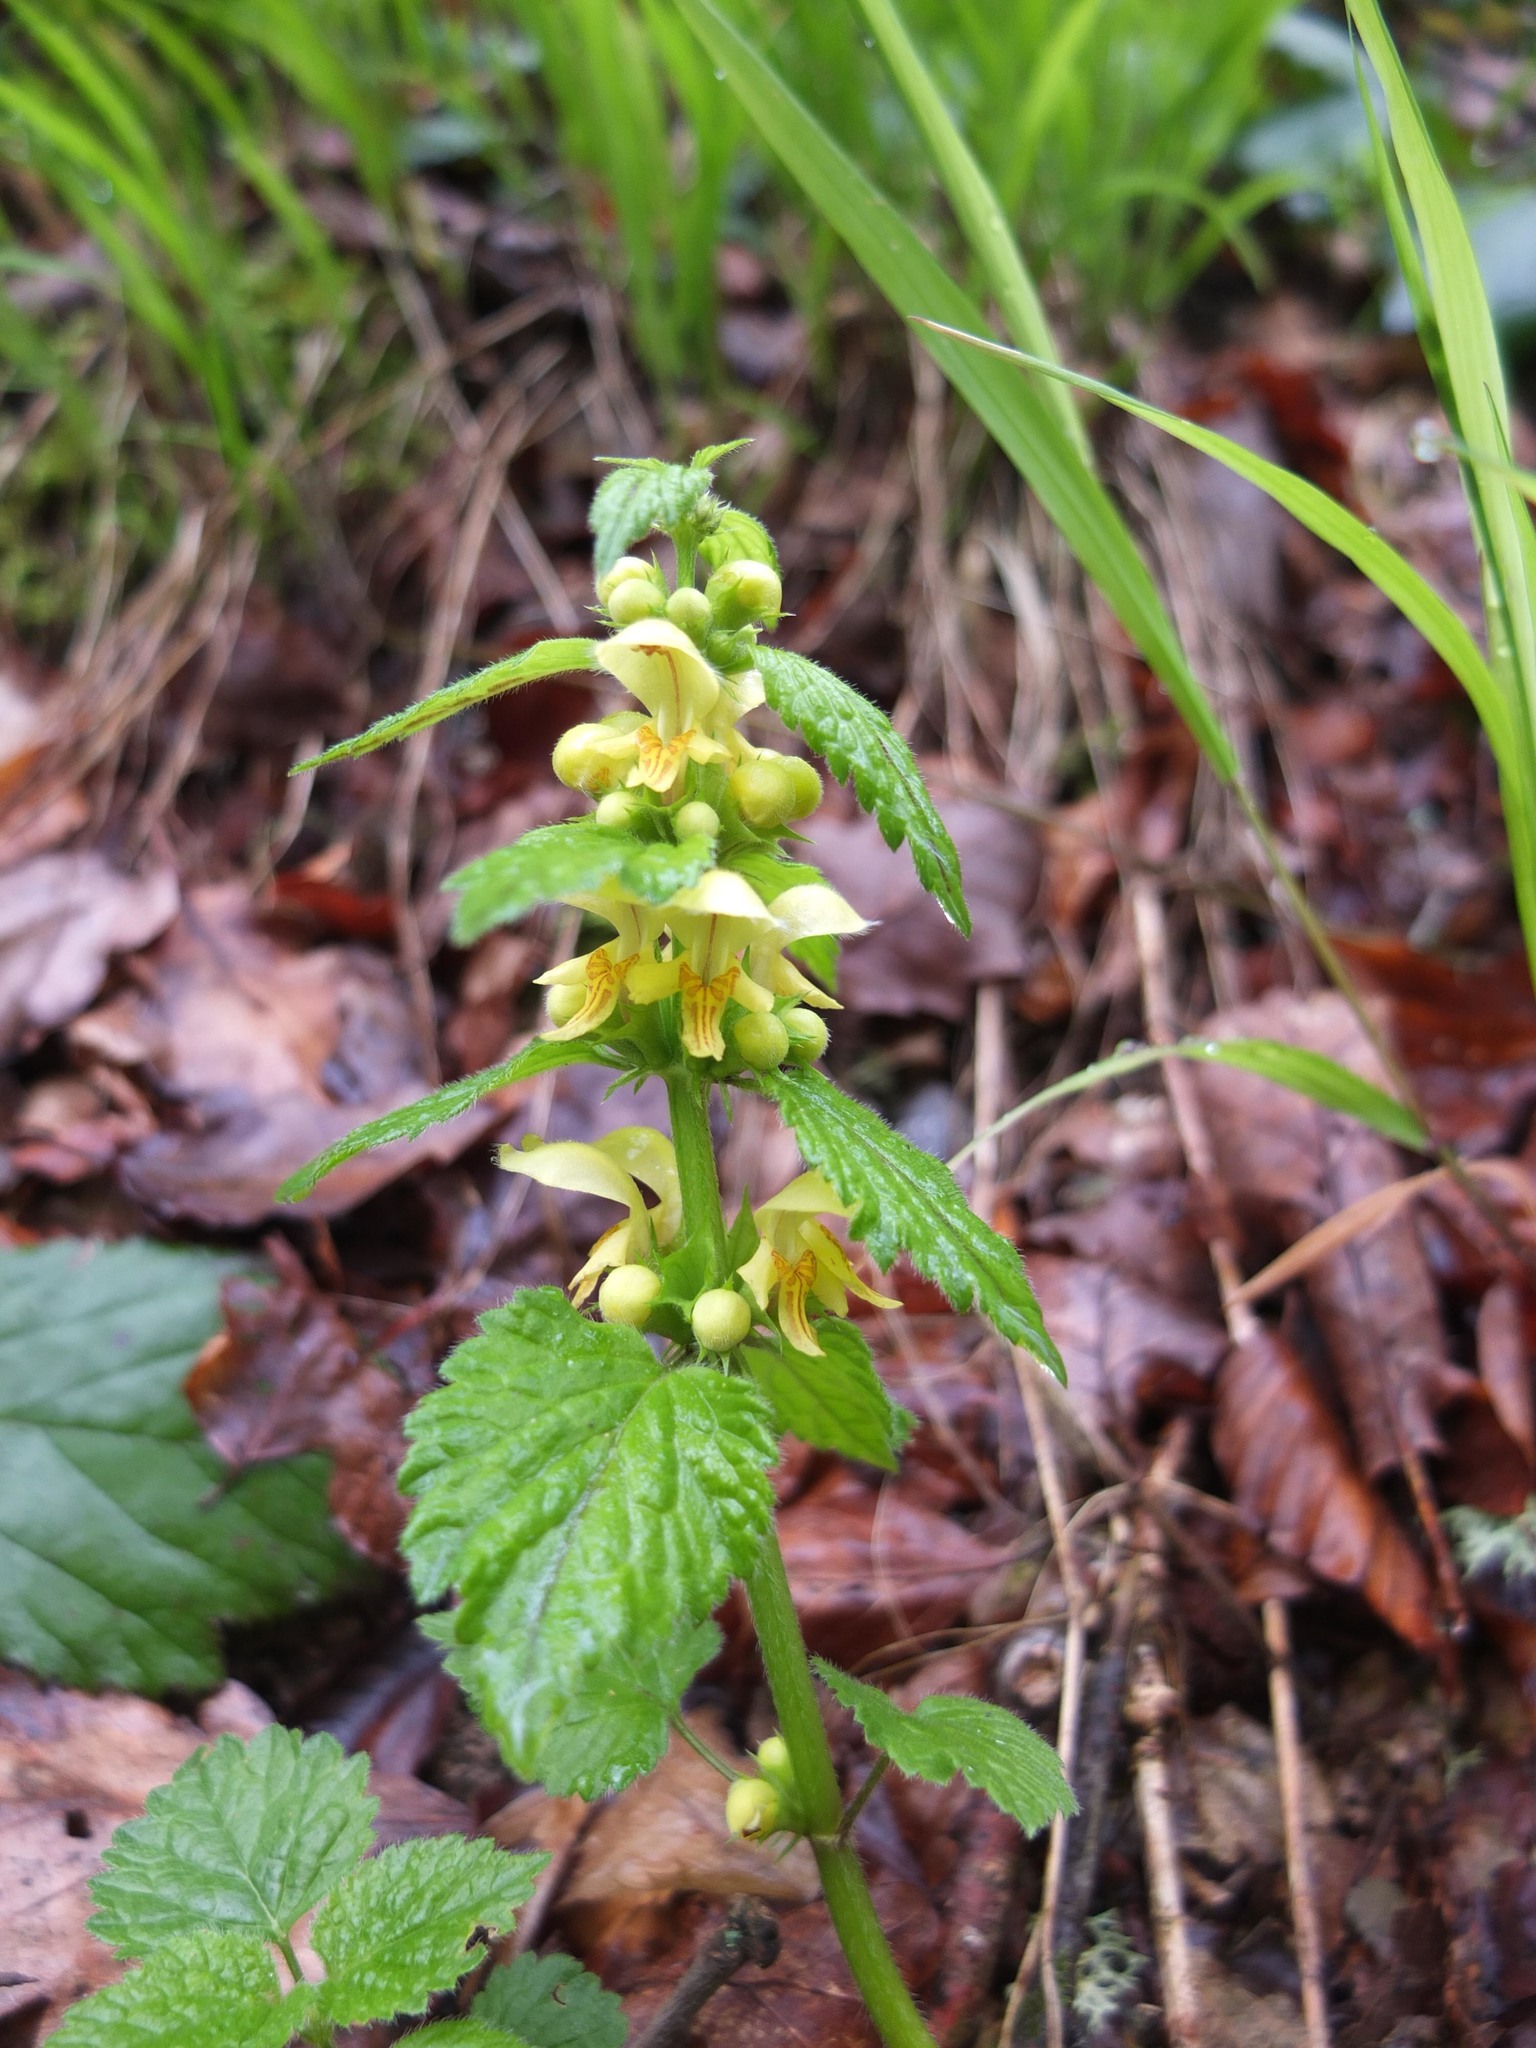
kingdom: Plantae
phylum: Tracheophyta
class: Magnoliopsida
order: Lamiales
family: Lamiaceae
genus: Lamium
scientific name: Lamium galeobdolon
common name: Yellow archangel
